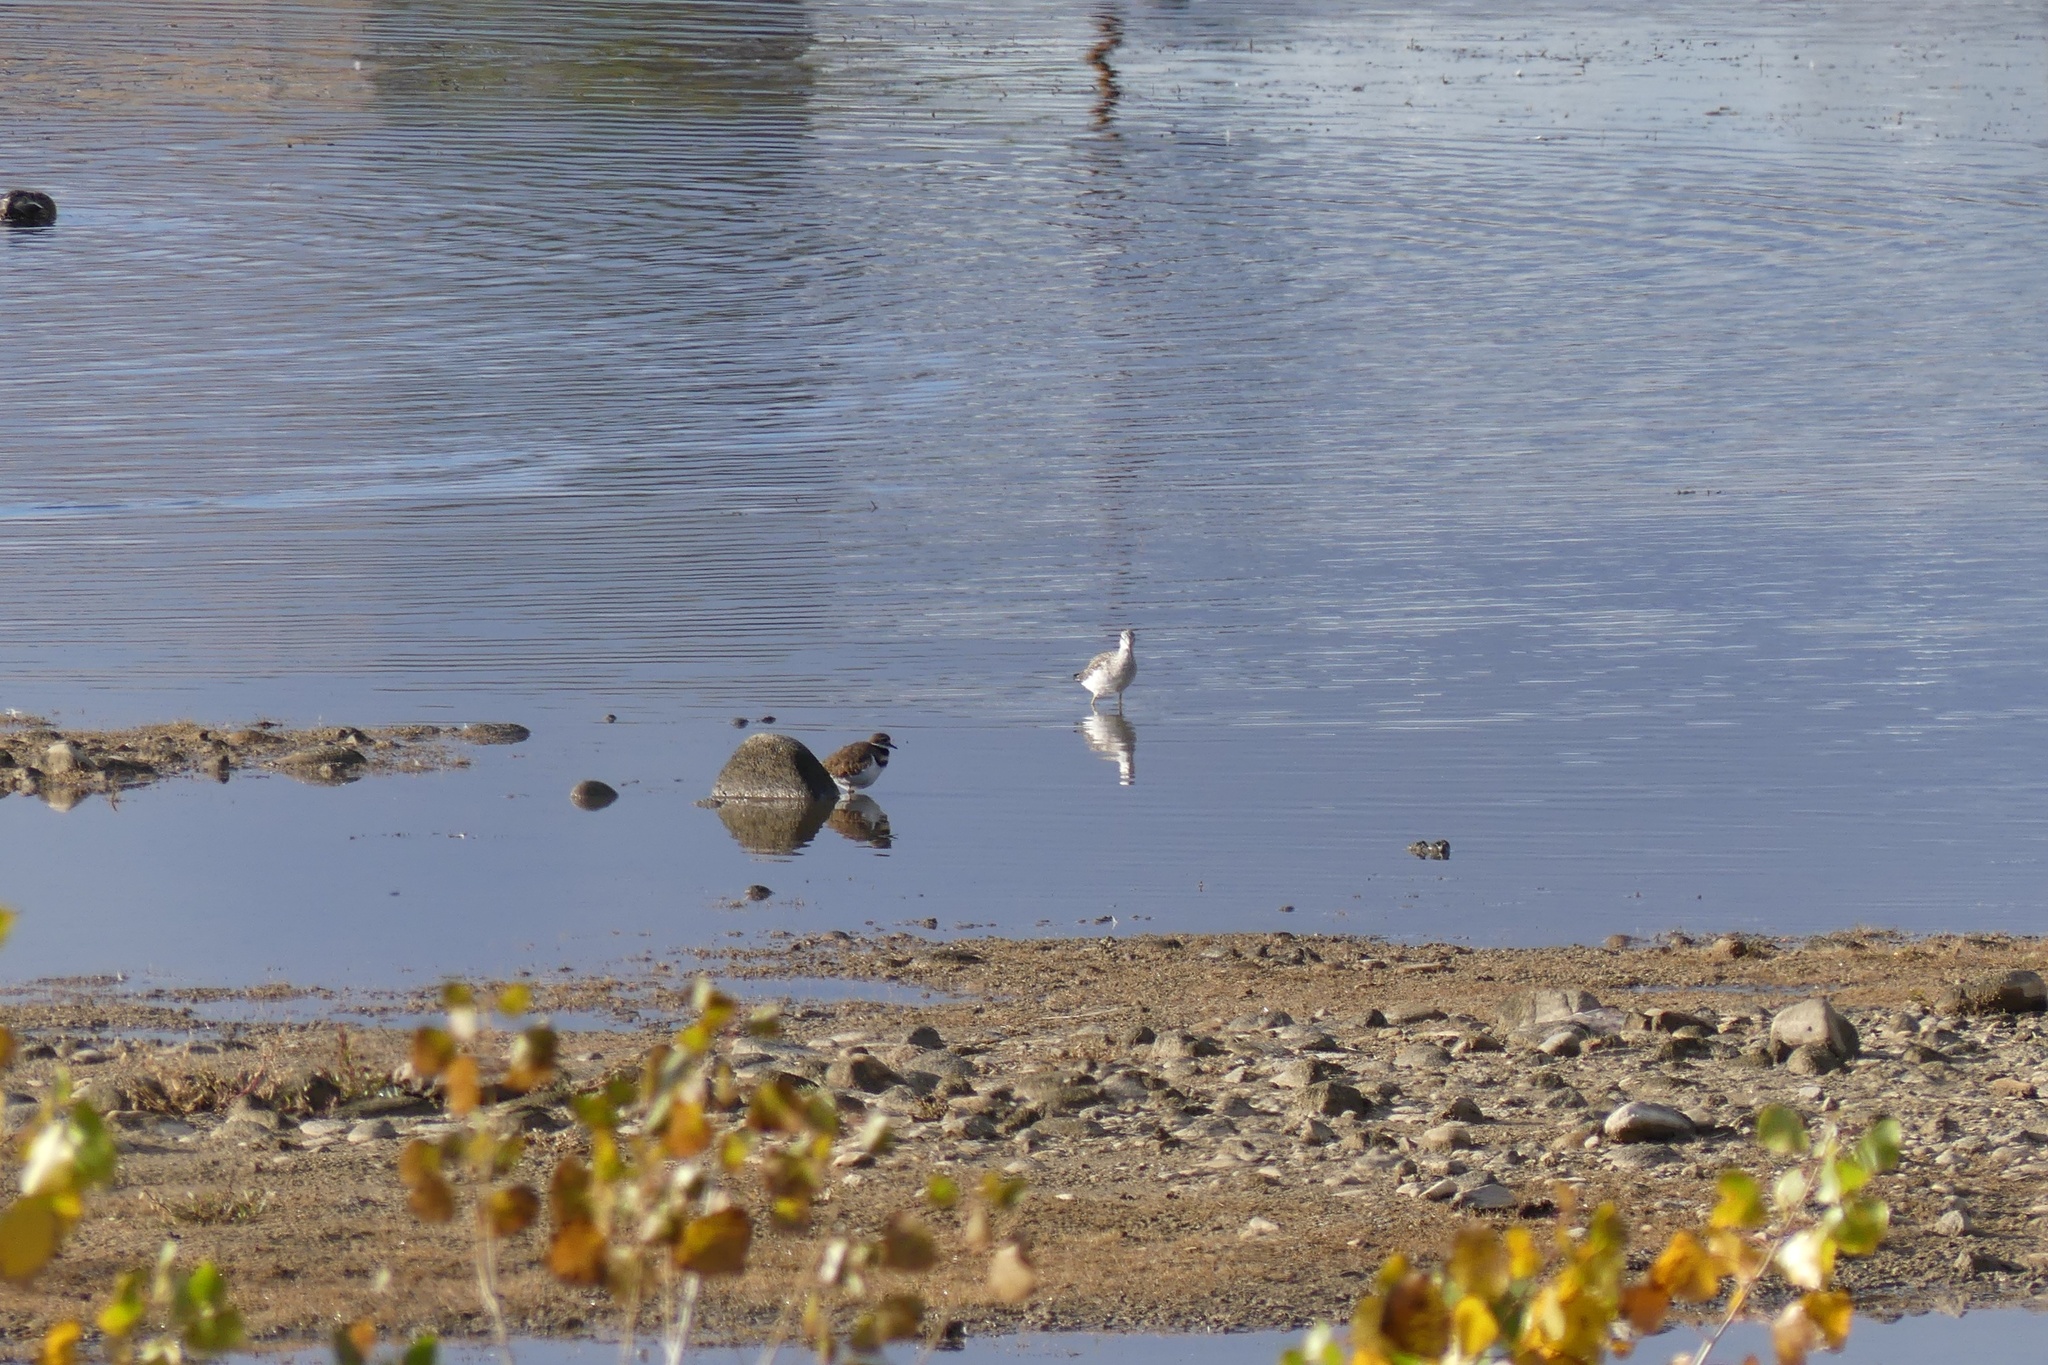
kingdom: Animalia
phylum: Chordata
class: Aves
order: Charadriiformes
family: Charadriidae
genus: Charadrius
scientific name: Charadrius vociferus
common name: Killdeer
